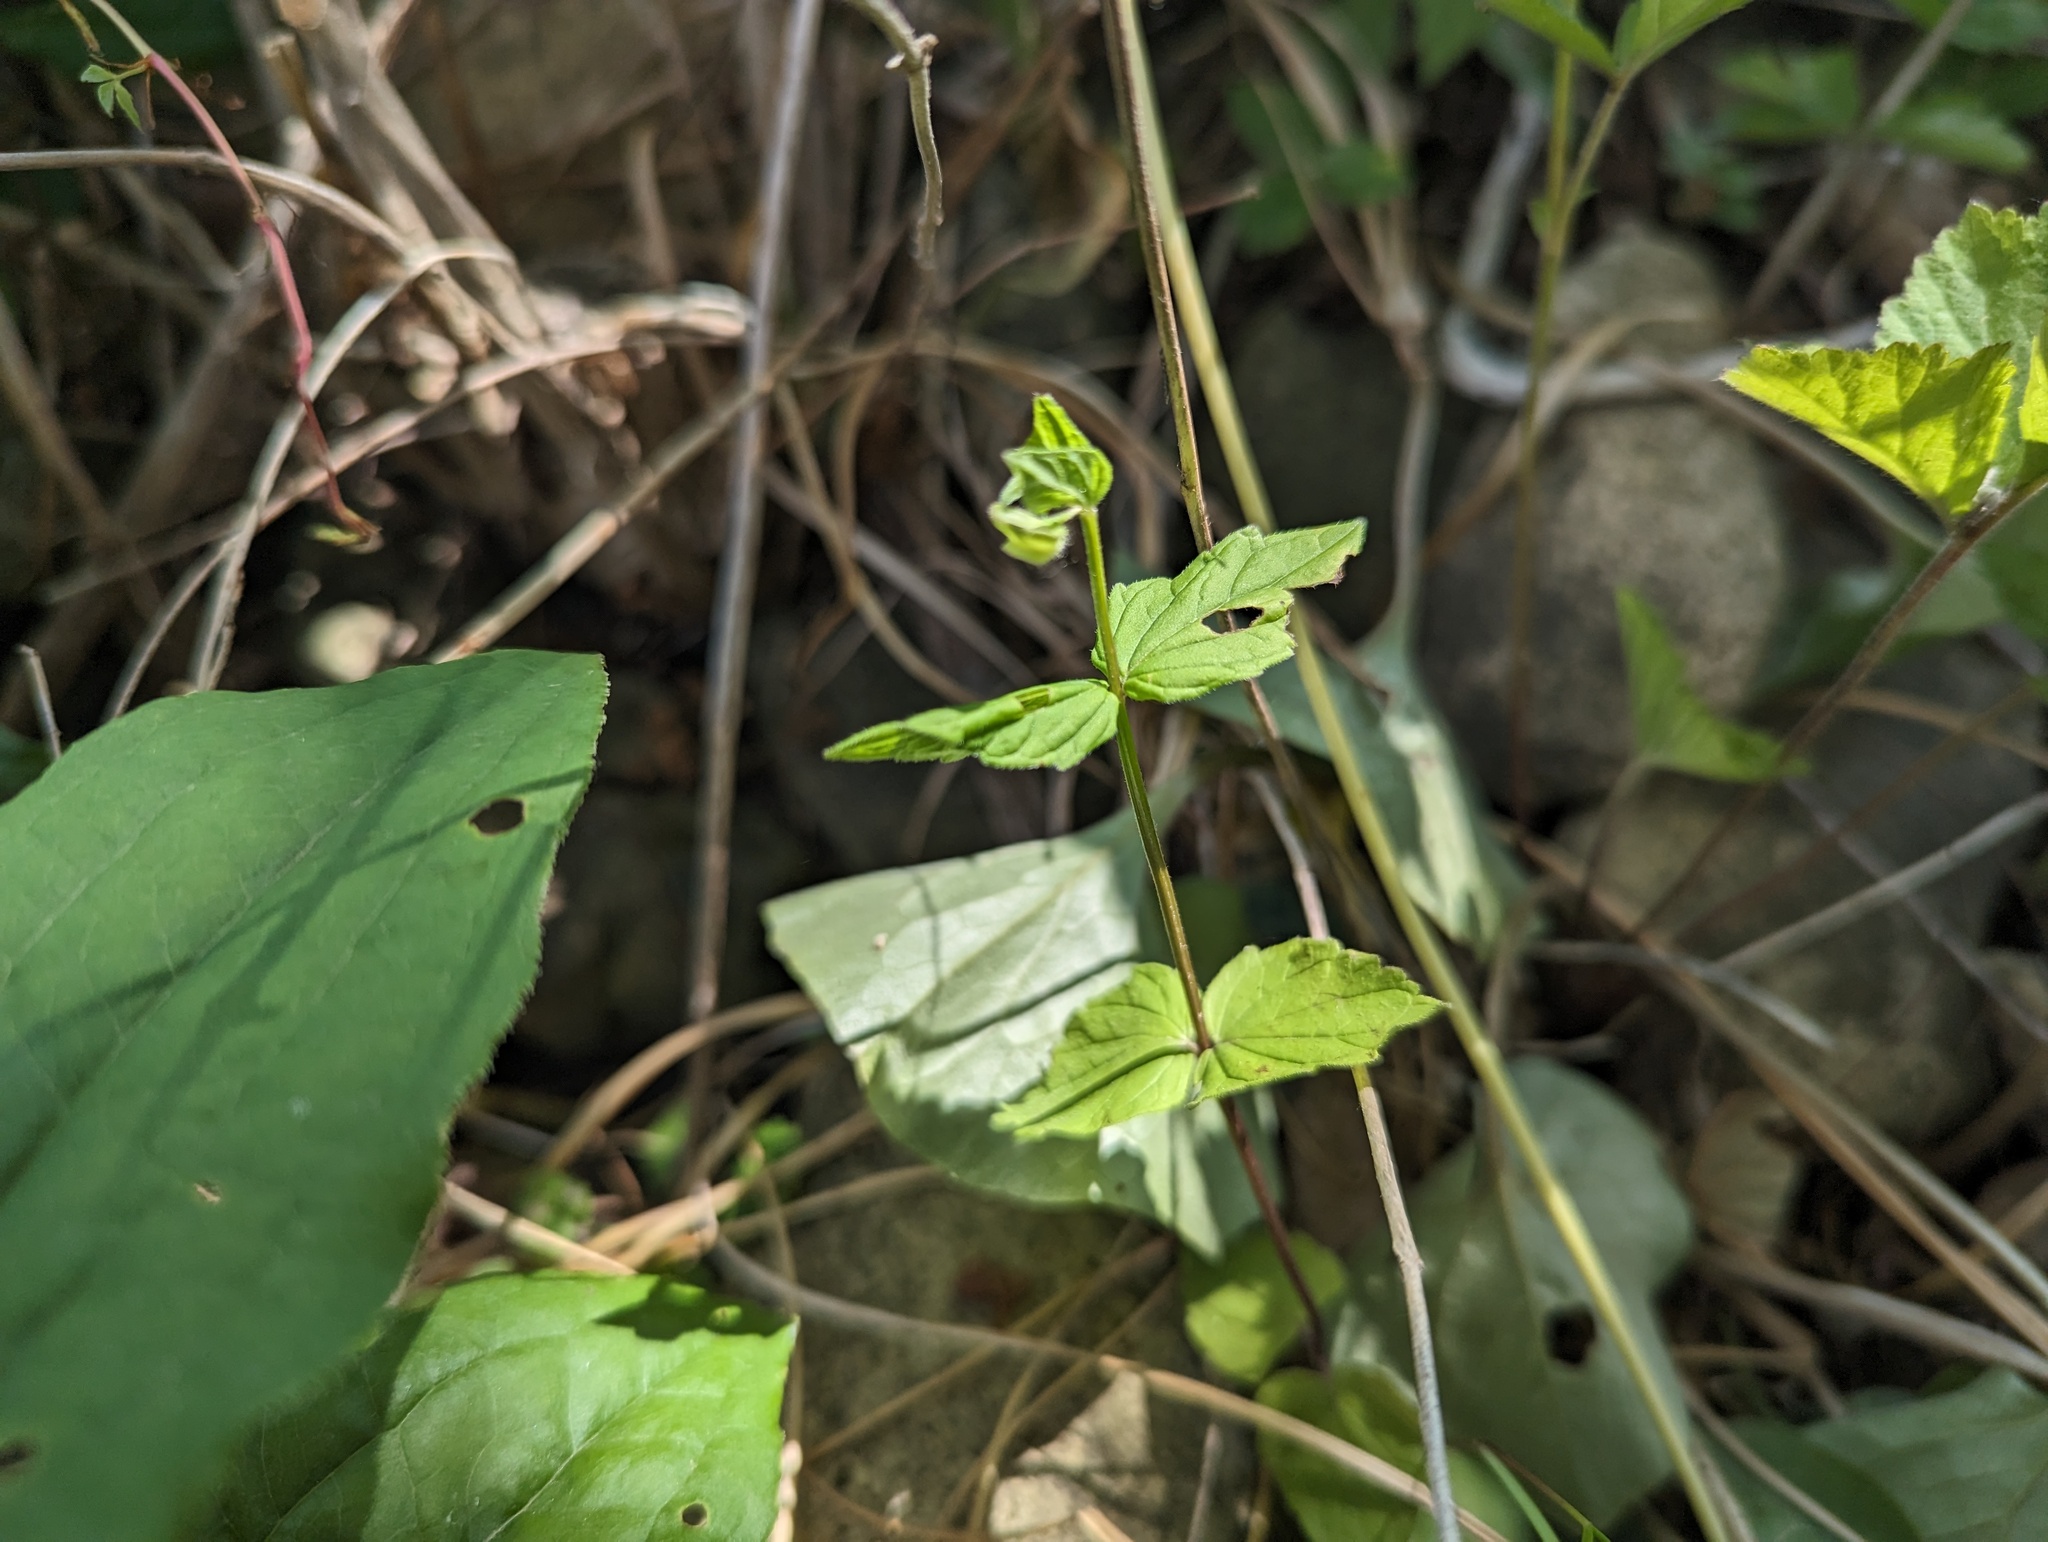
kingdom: Plantae
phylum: Tracheophyta
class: Magnoliopsida
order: Lamiales
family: Lamiaceae
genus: Scutellaria
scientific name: Scutellaria nervosa
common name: Bottomland skullcap
